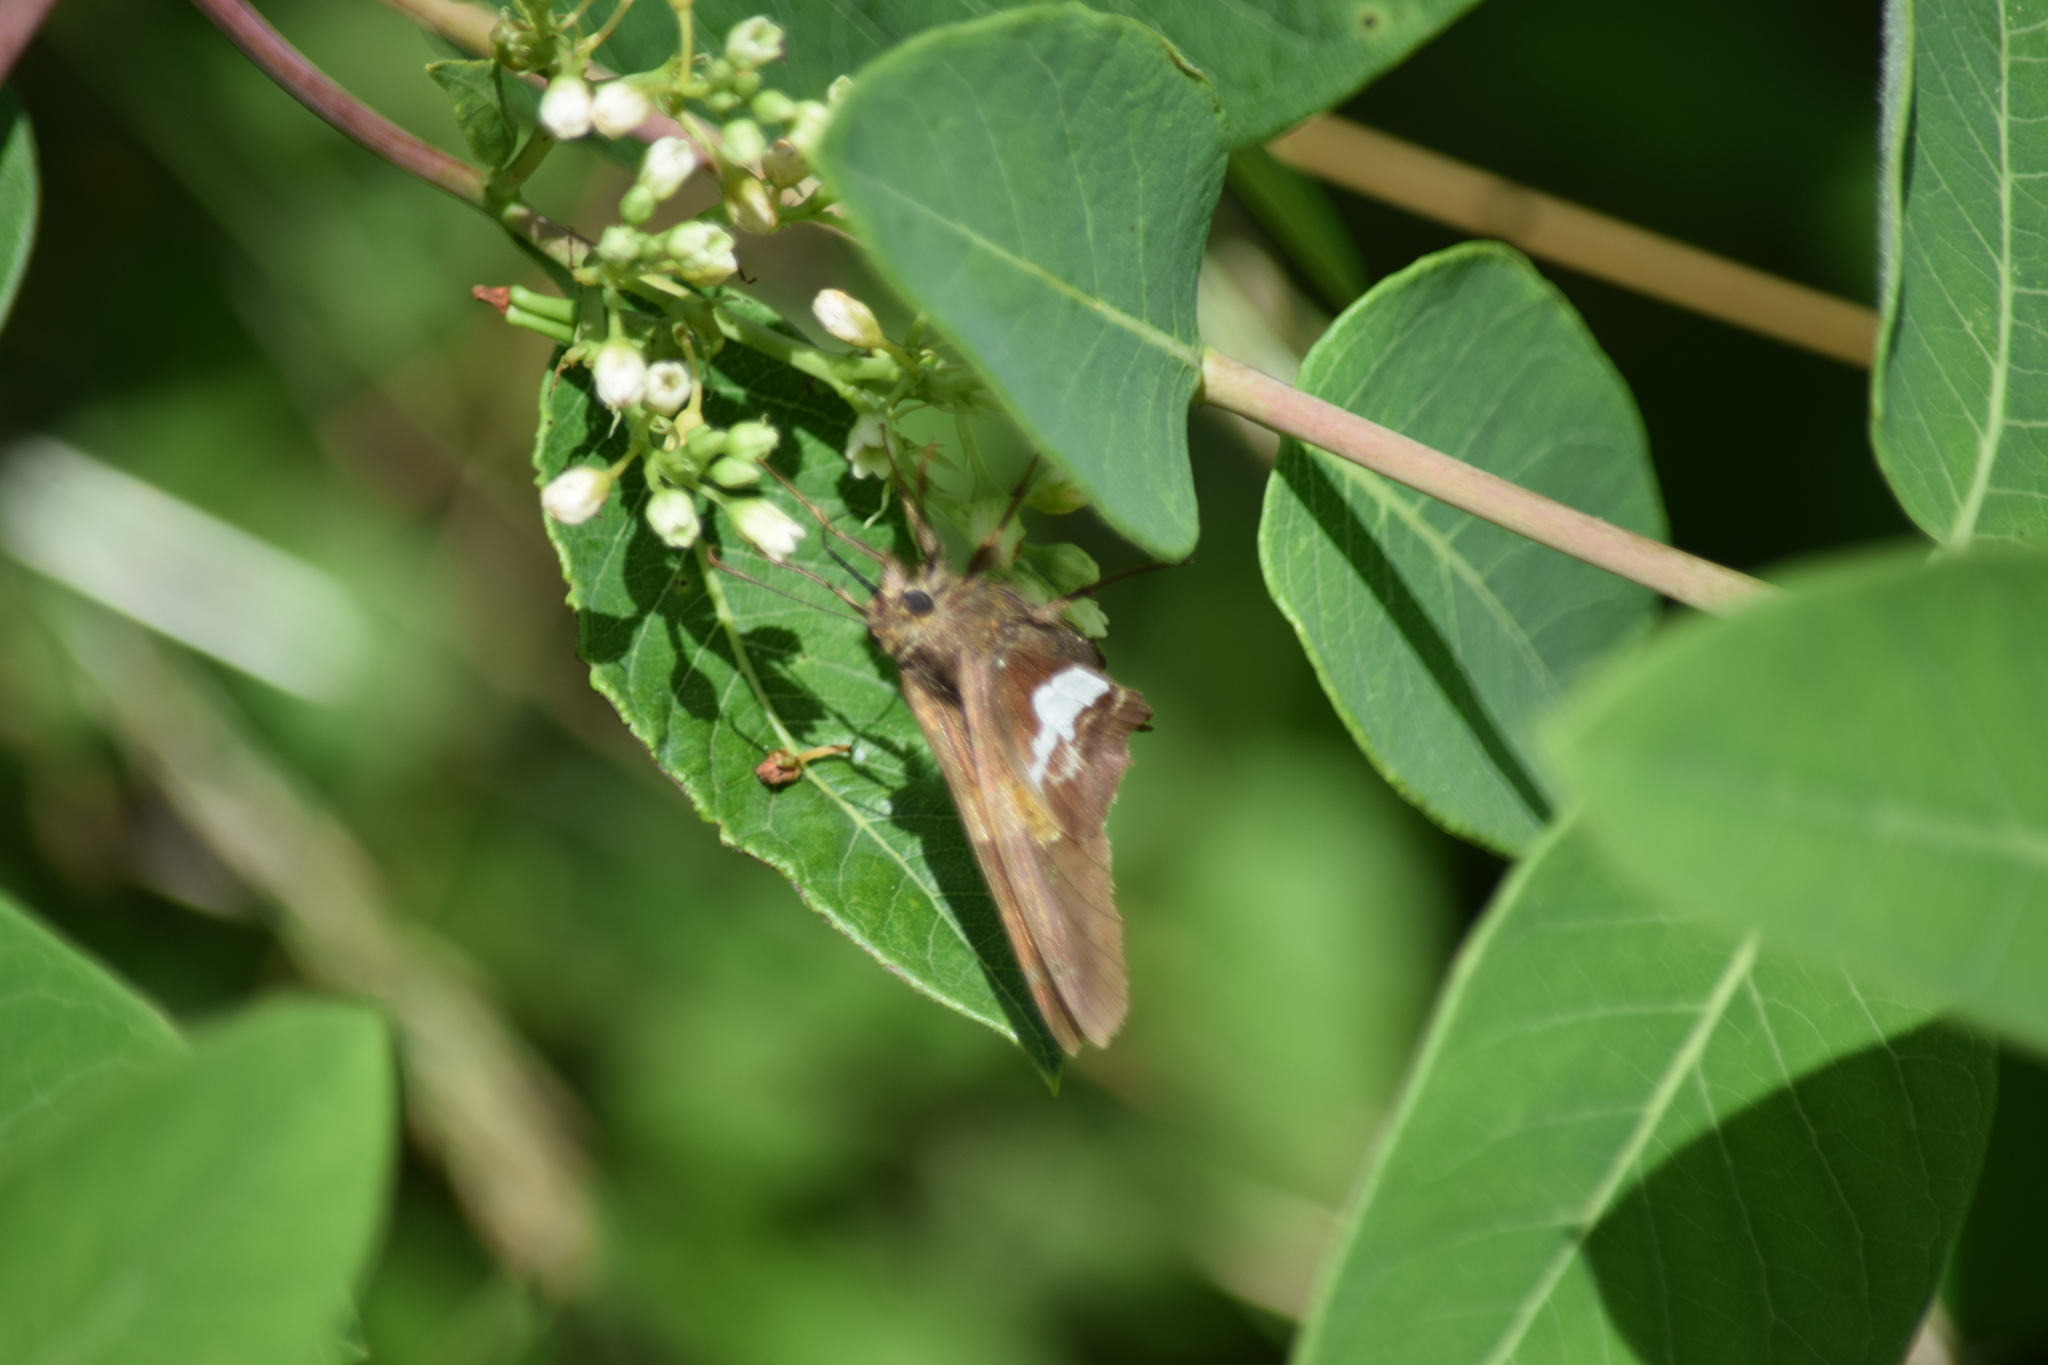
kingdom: Animalia
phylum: Arthropoda
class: Insecta
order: Lepidoptera
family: Hesperiidae
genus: Epargyreus
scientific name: Epargyreus clarus
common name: Silver-spotted skipper
